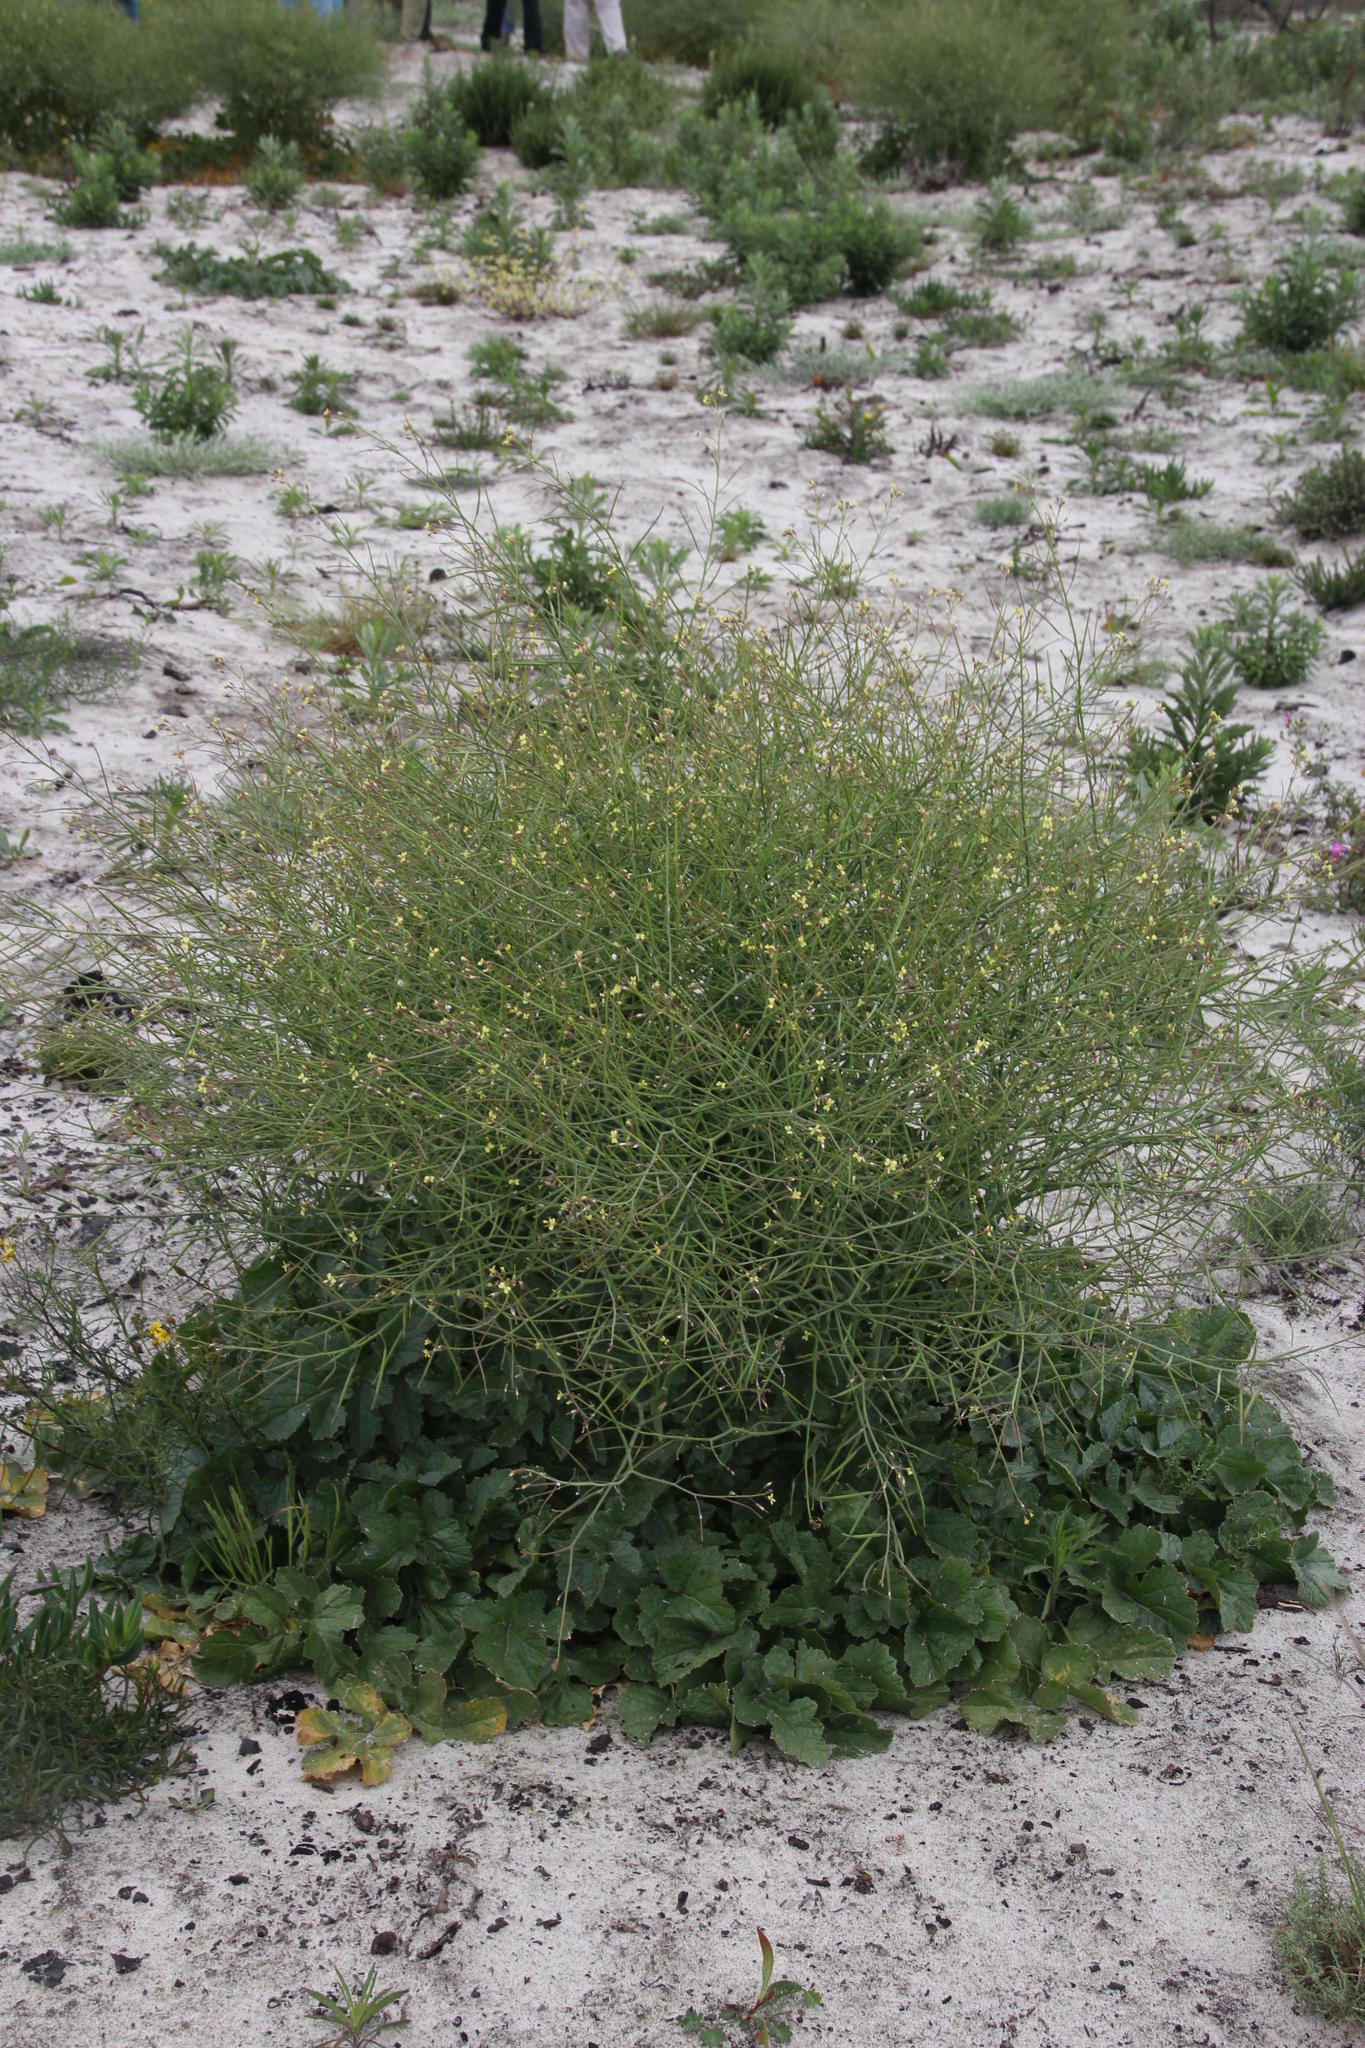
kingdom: Plantae
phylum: Tracheophyta
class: Magnoliopsida
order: Brassicales
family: Brassicaceae
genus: Brassica
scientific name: Brassica tournefortii
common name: Pale cabbage
